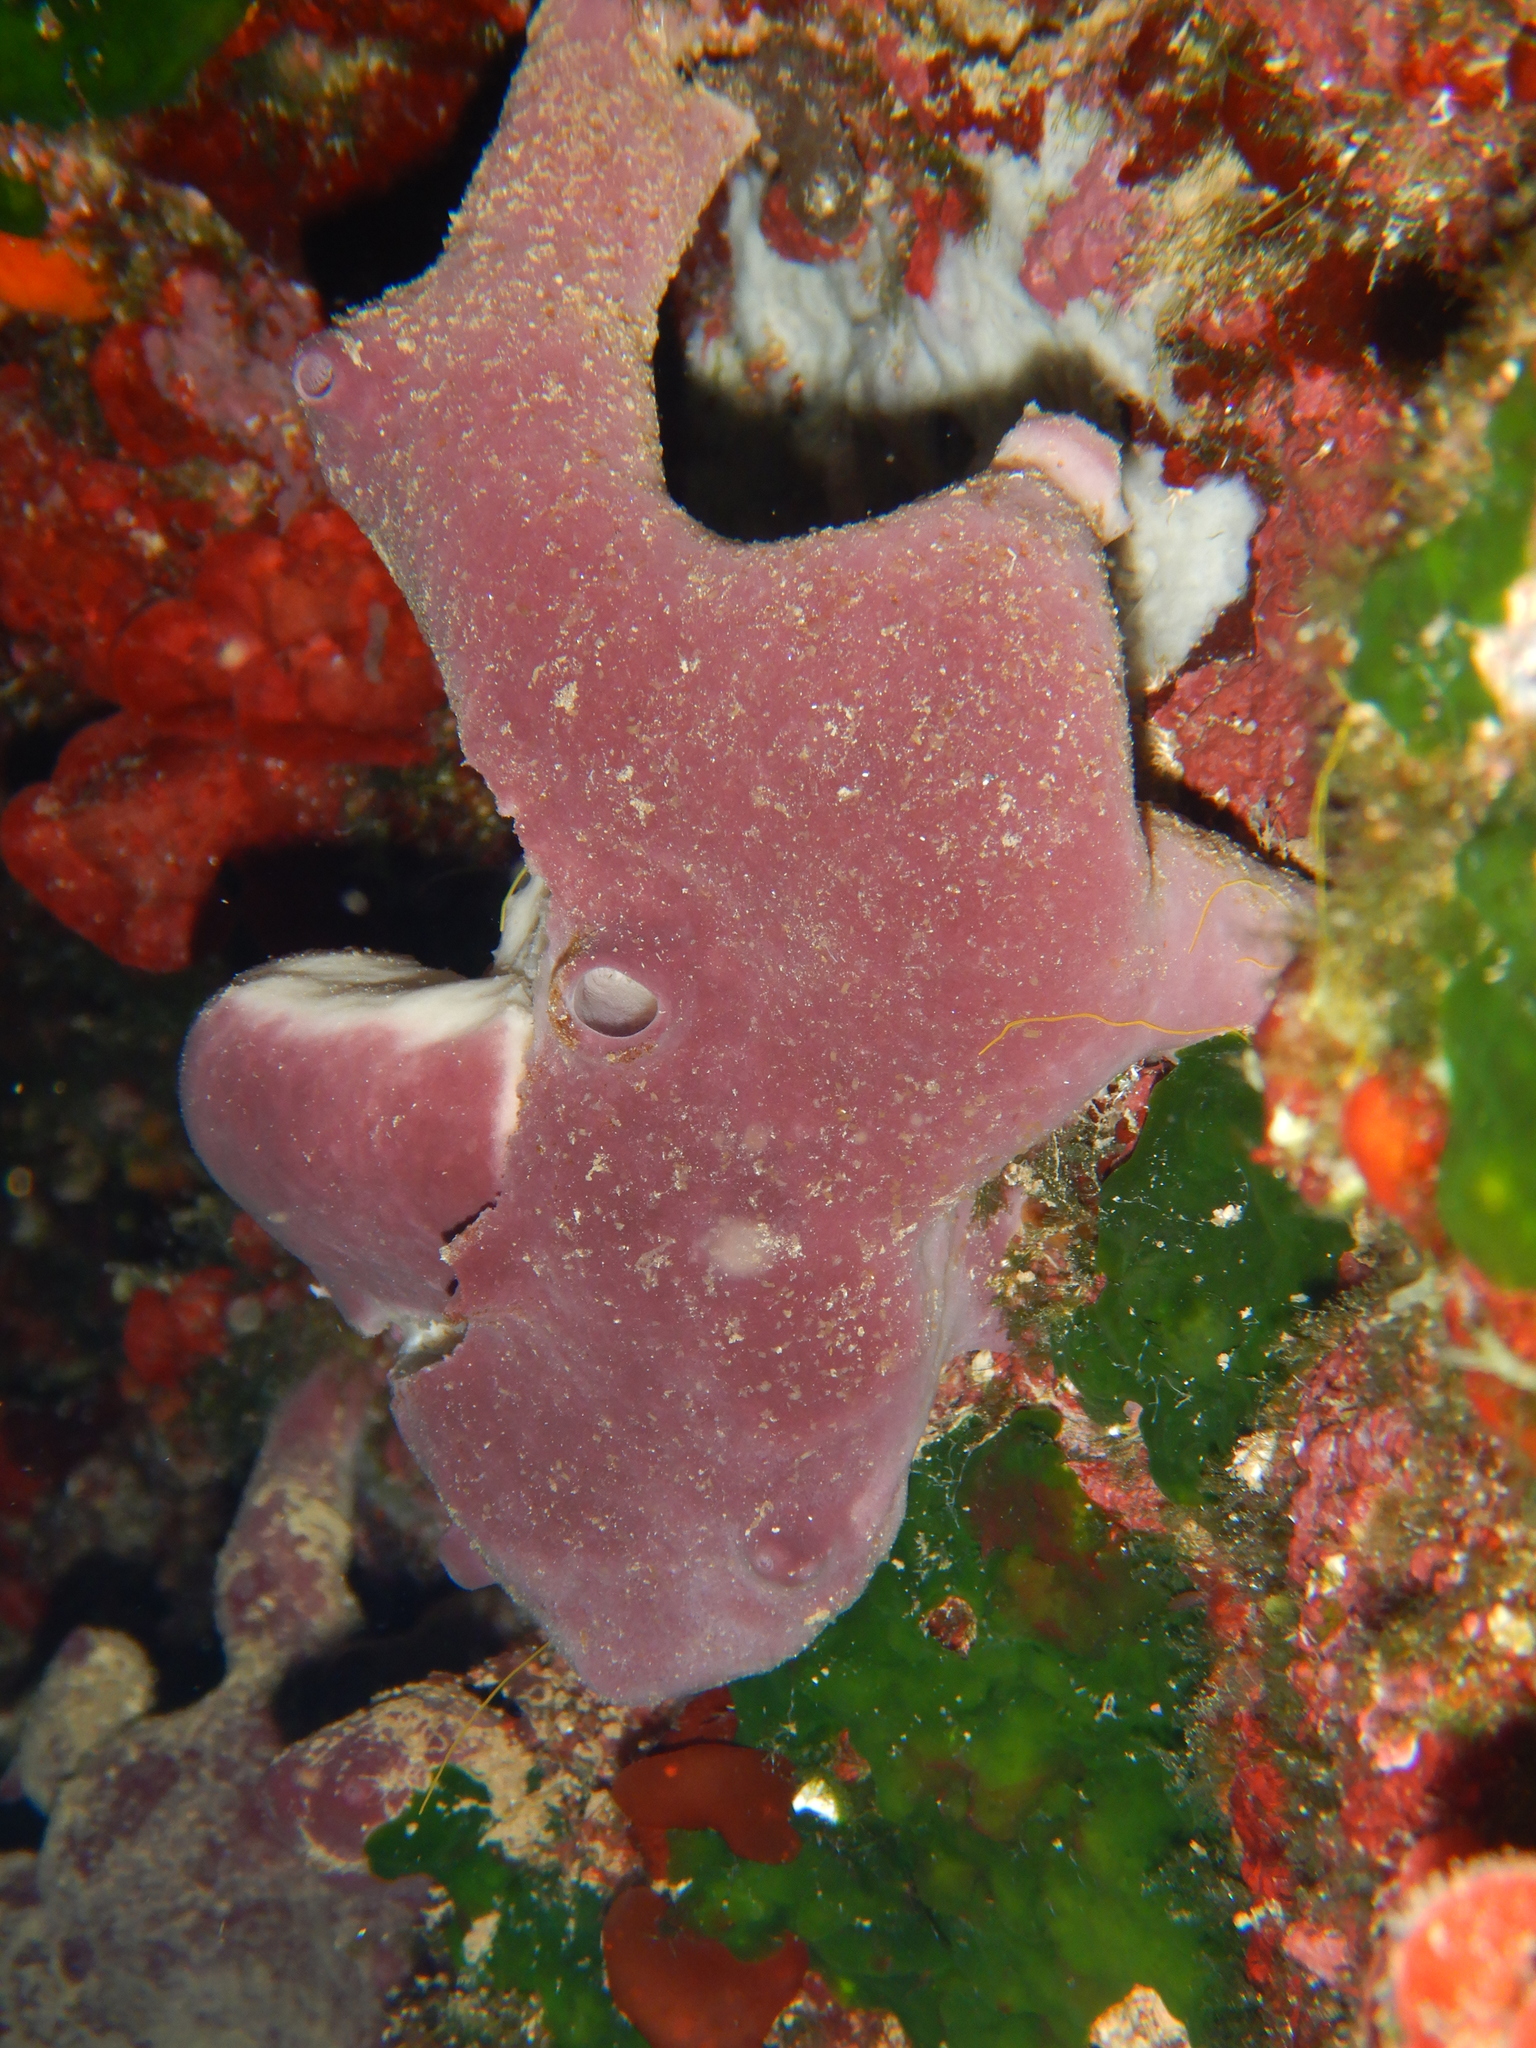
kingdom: Animalia
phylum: Porifera
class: Demospongiae
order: Haplosclerida
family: Petrosiidae
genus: Petrosia
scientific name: Petrosia ficiformis
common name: Stony sponge
